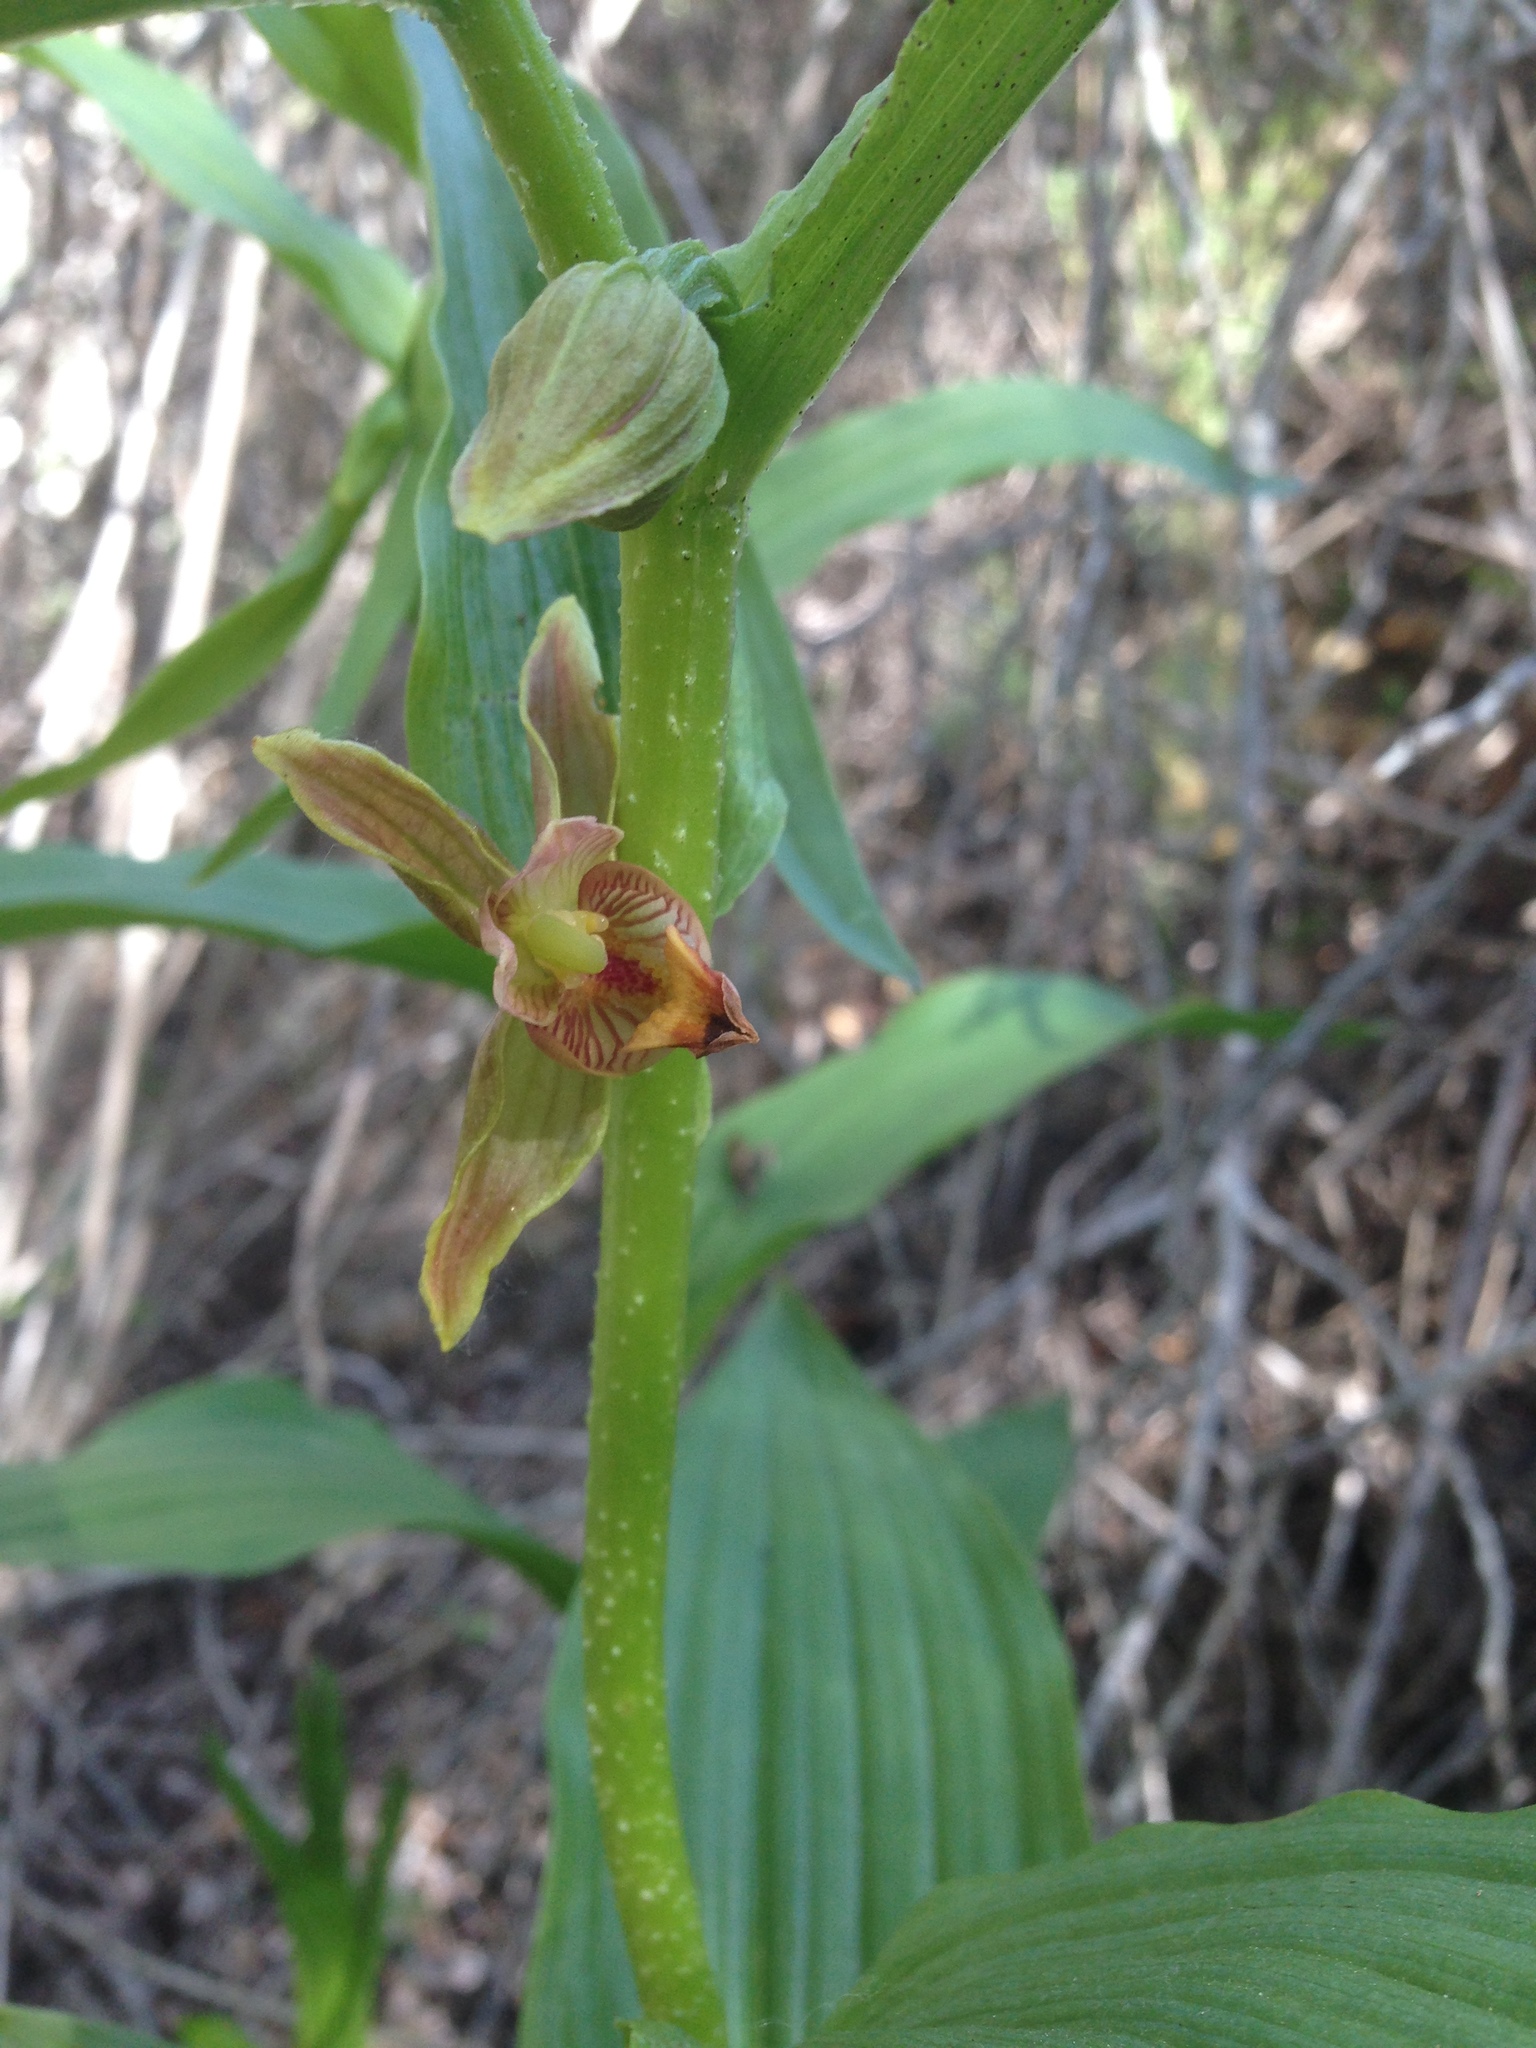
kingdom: Plantae
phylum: Tracheophyta
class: Liliopsida
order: Asparagales
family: Orchidaceae
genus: Epipactis
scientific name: Epipactis gigantea
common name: Chatterbox
